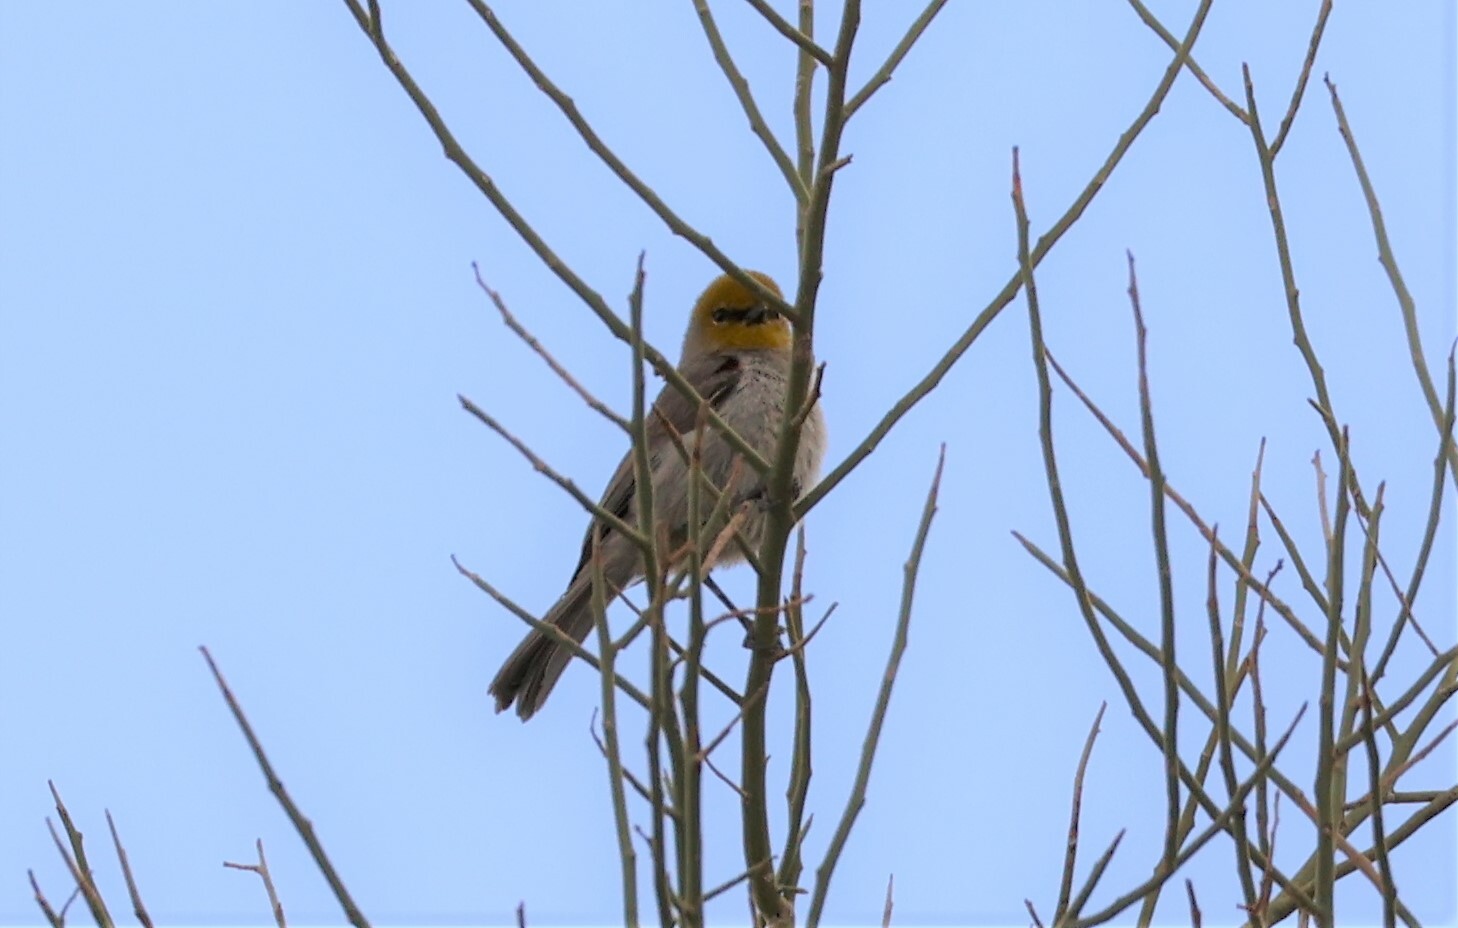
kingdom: Animalia
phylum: Chordata
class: Aves
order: Passeriformes
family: Remizidae
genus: Auriparus
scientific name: Auriparus flaviceps
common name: Verdin
